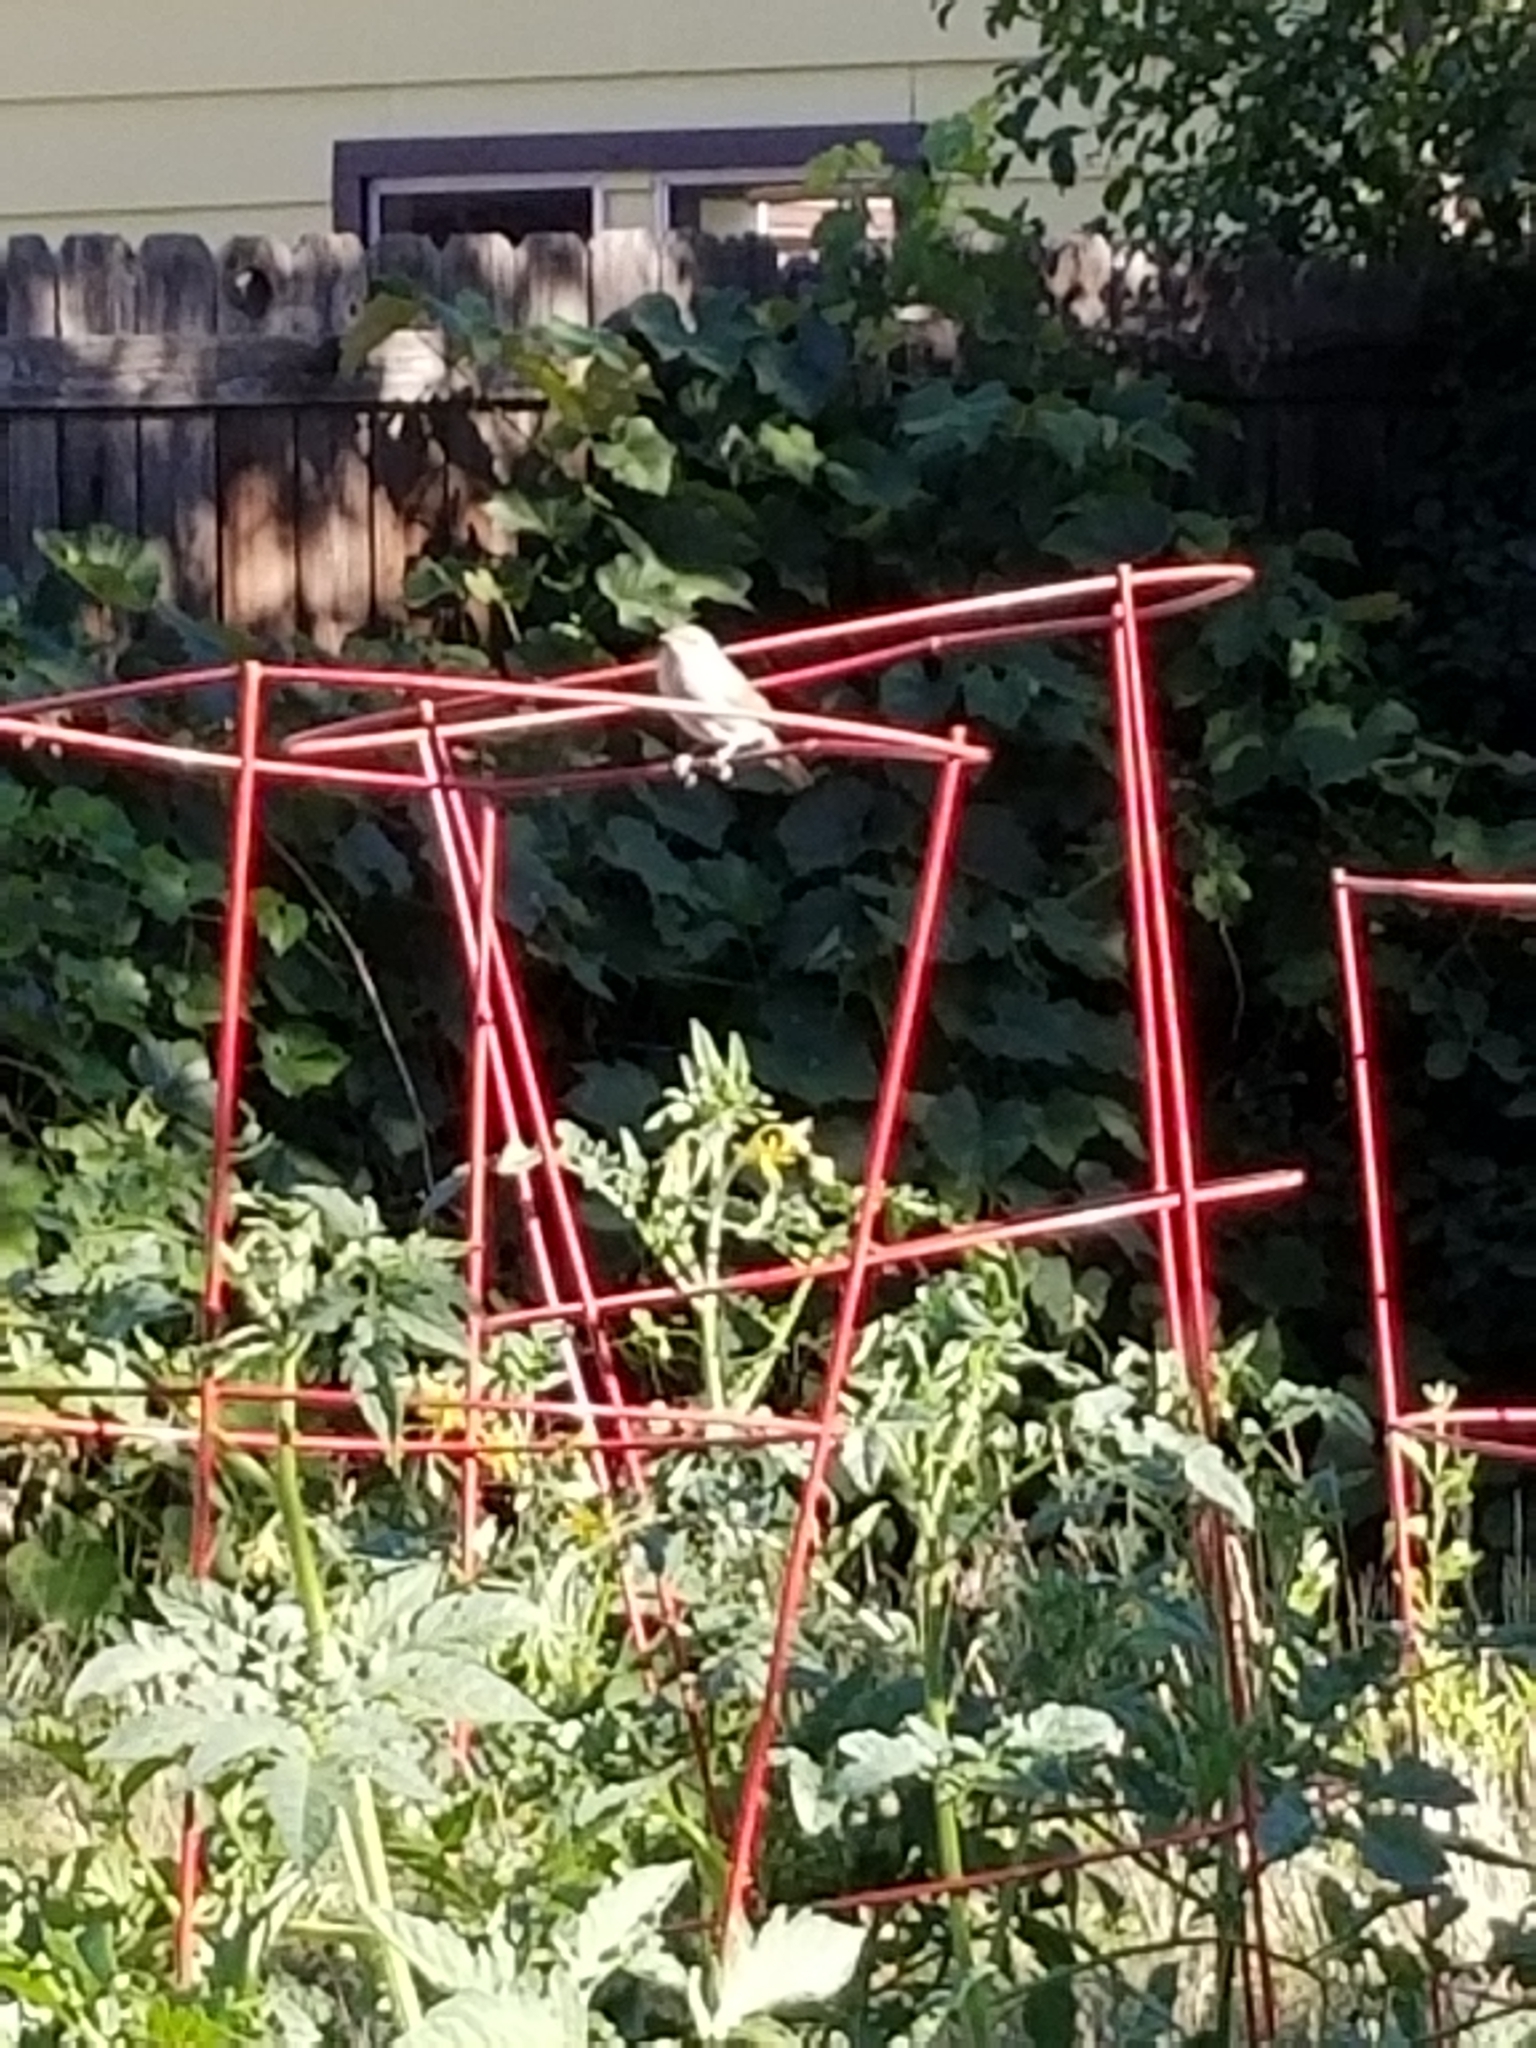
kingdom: Animalia
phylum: Chordata
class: Aves
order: Passeriformes
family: Troglodytidae
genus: Troglodytes
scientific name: Troglodytes aedon
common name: House wren
